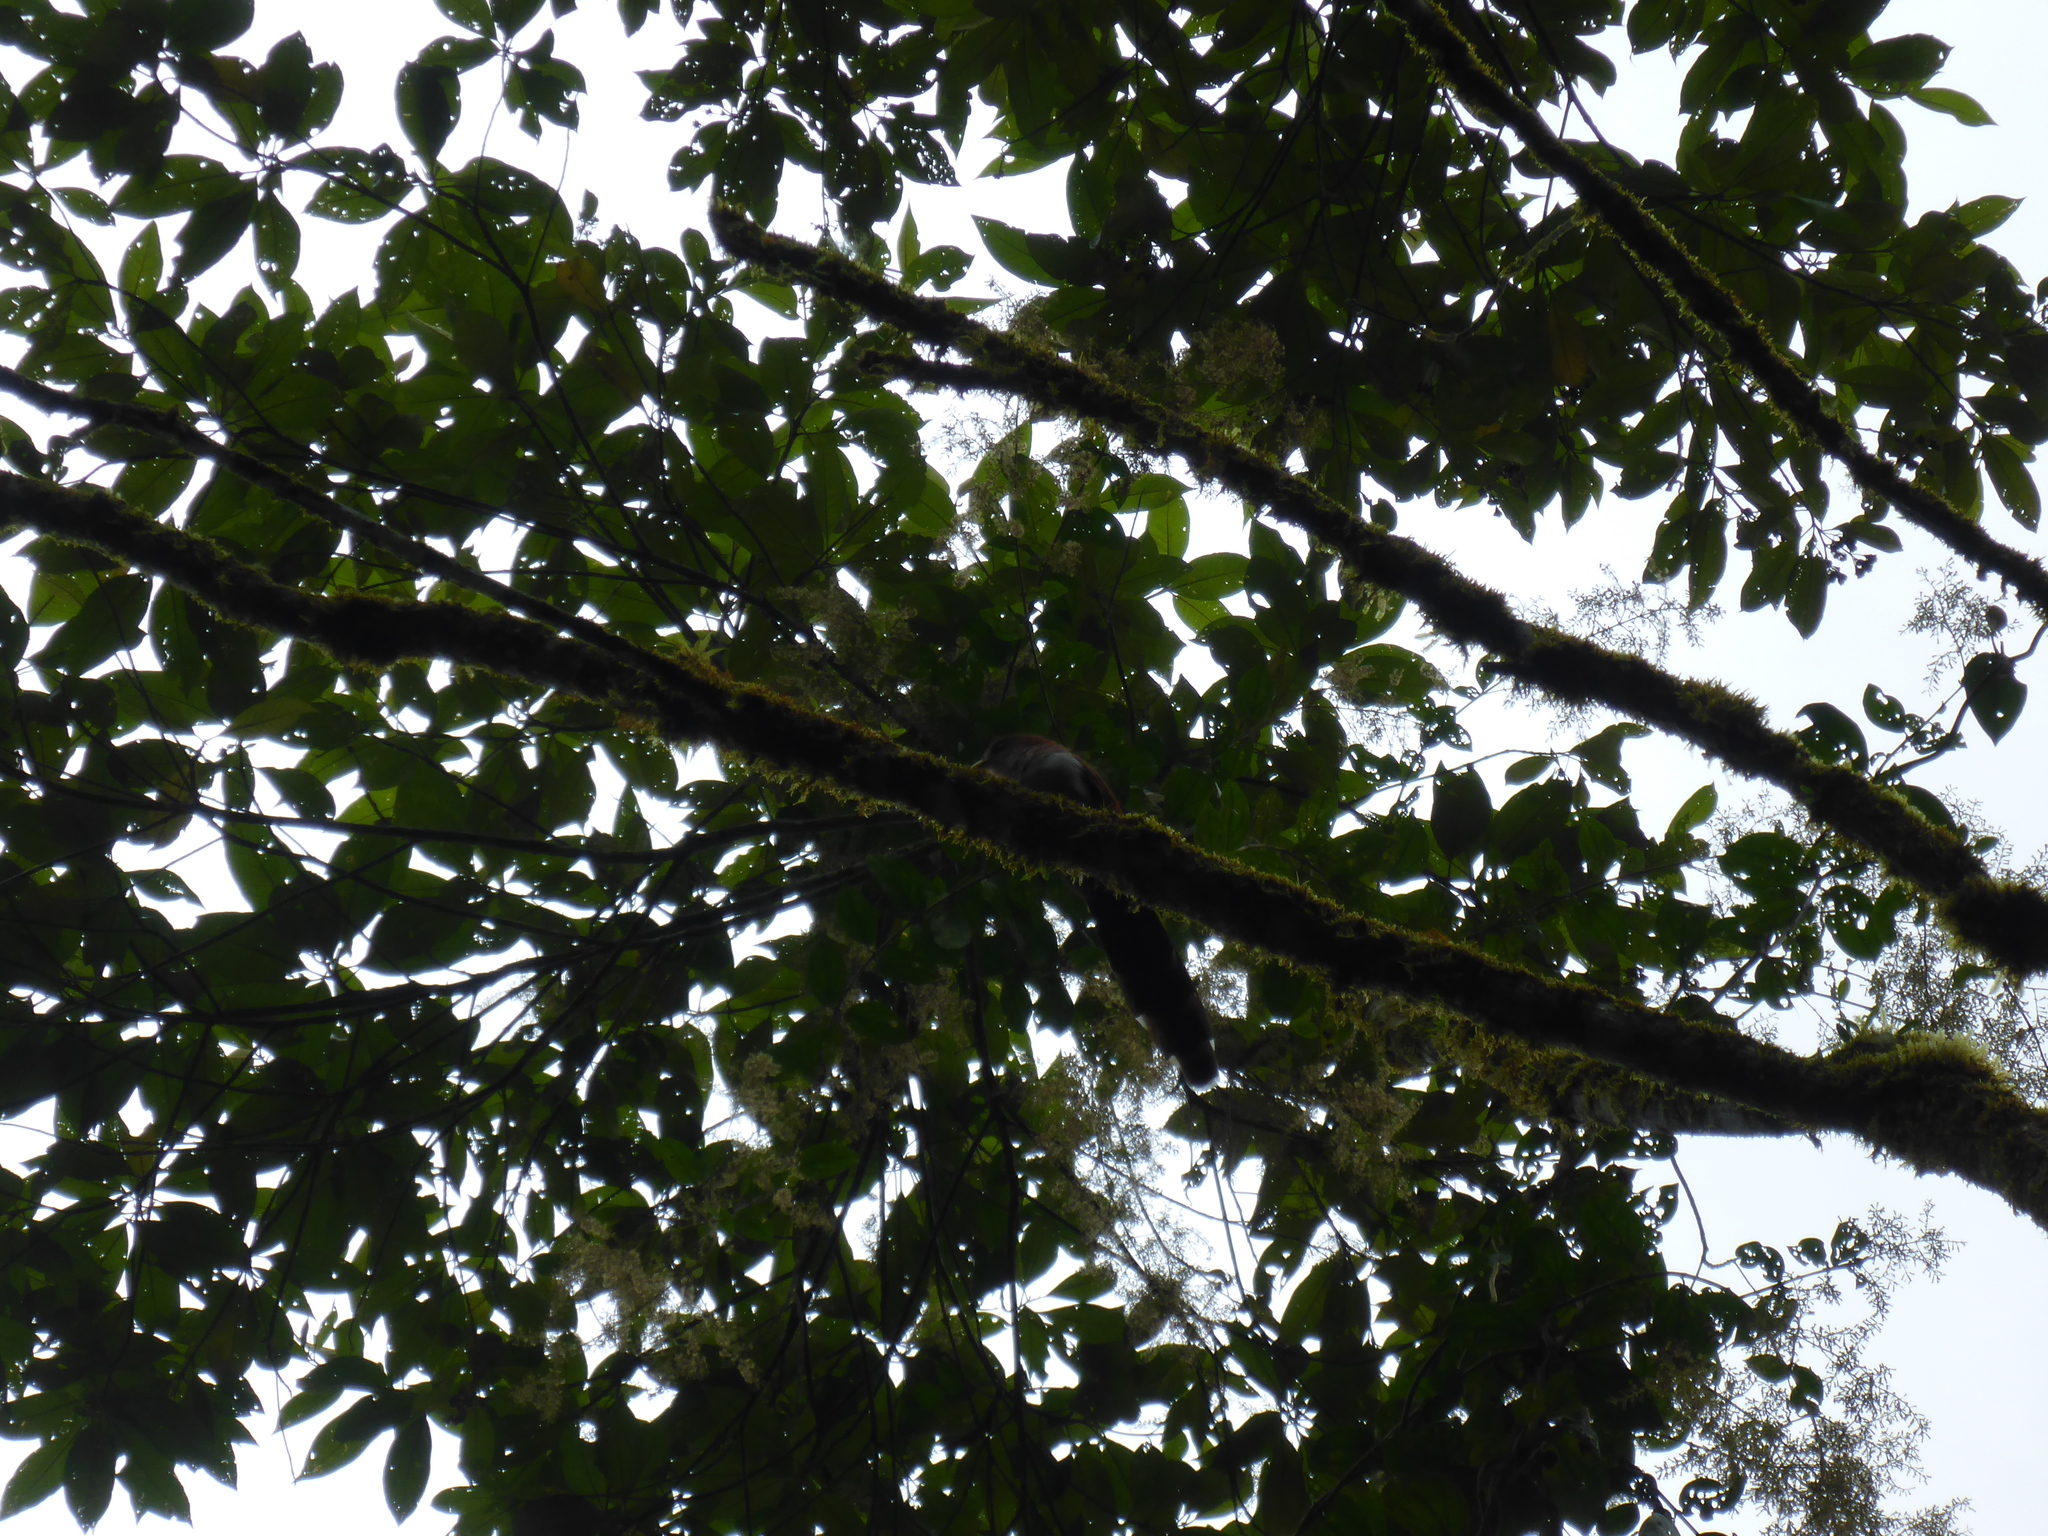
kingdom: Animalia
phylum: Chordata
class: Aves
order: Cuculiformes
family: Cuculidae
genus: Piaya
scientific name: Piaya cayana
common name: Squirrel cuckoo
